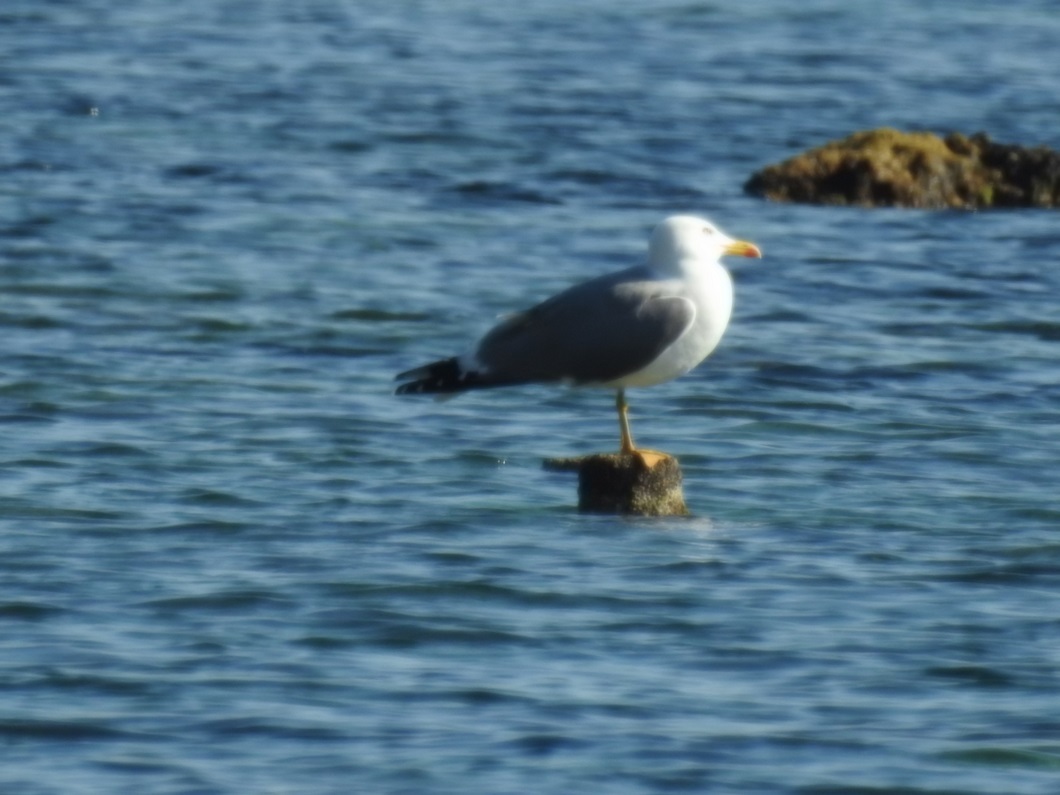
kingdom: Animalia
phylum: Chordata
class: Aves
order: Charadriiformes
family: Laridae
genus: Larus
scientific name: Larus michahellis
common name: Yellow-legged gull
